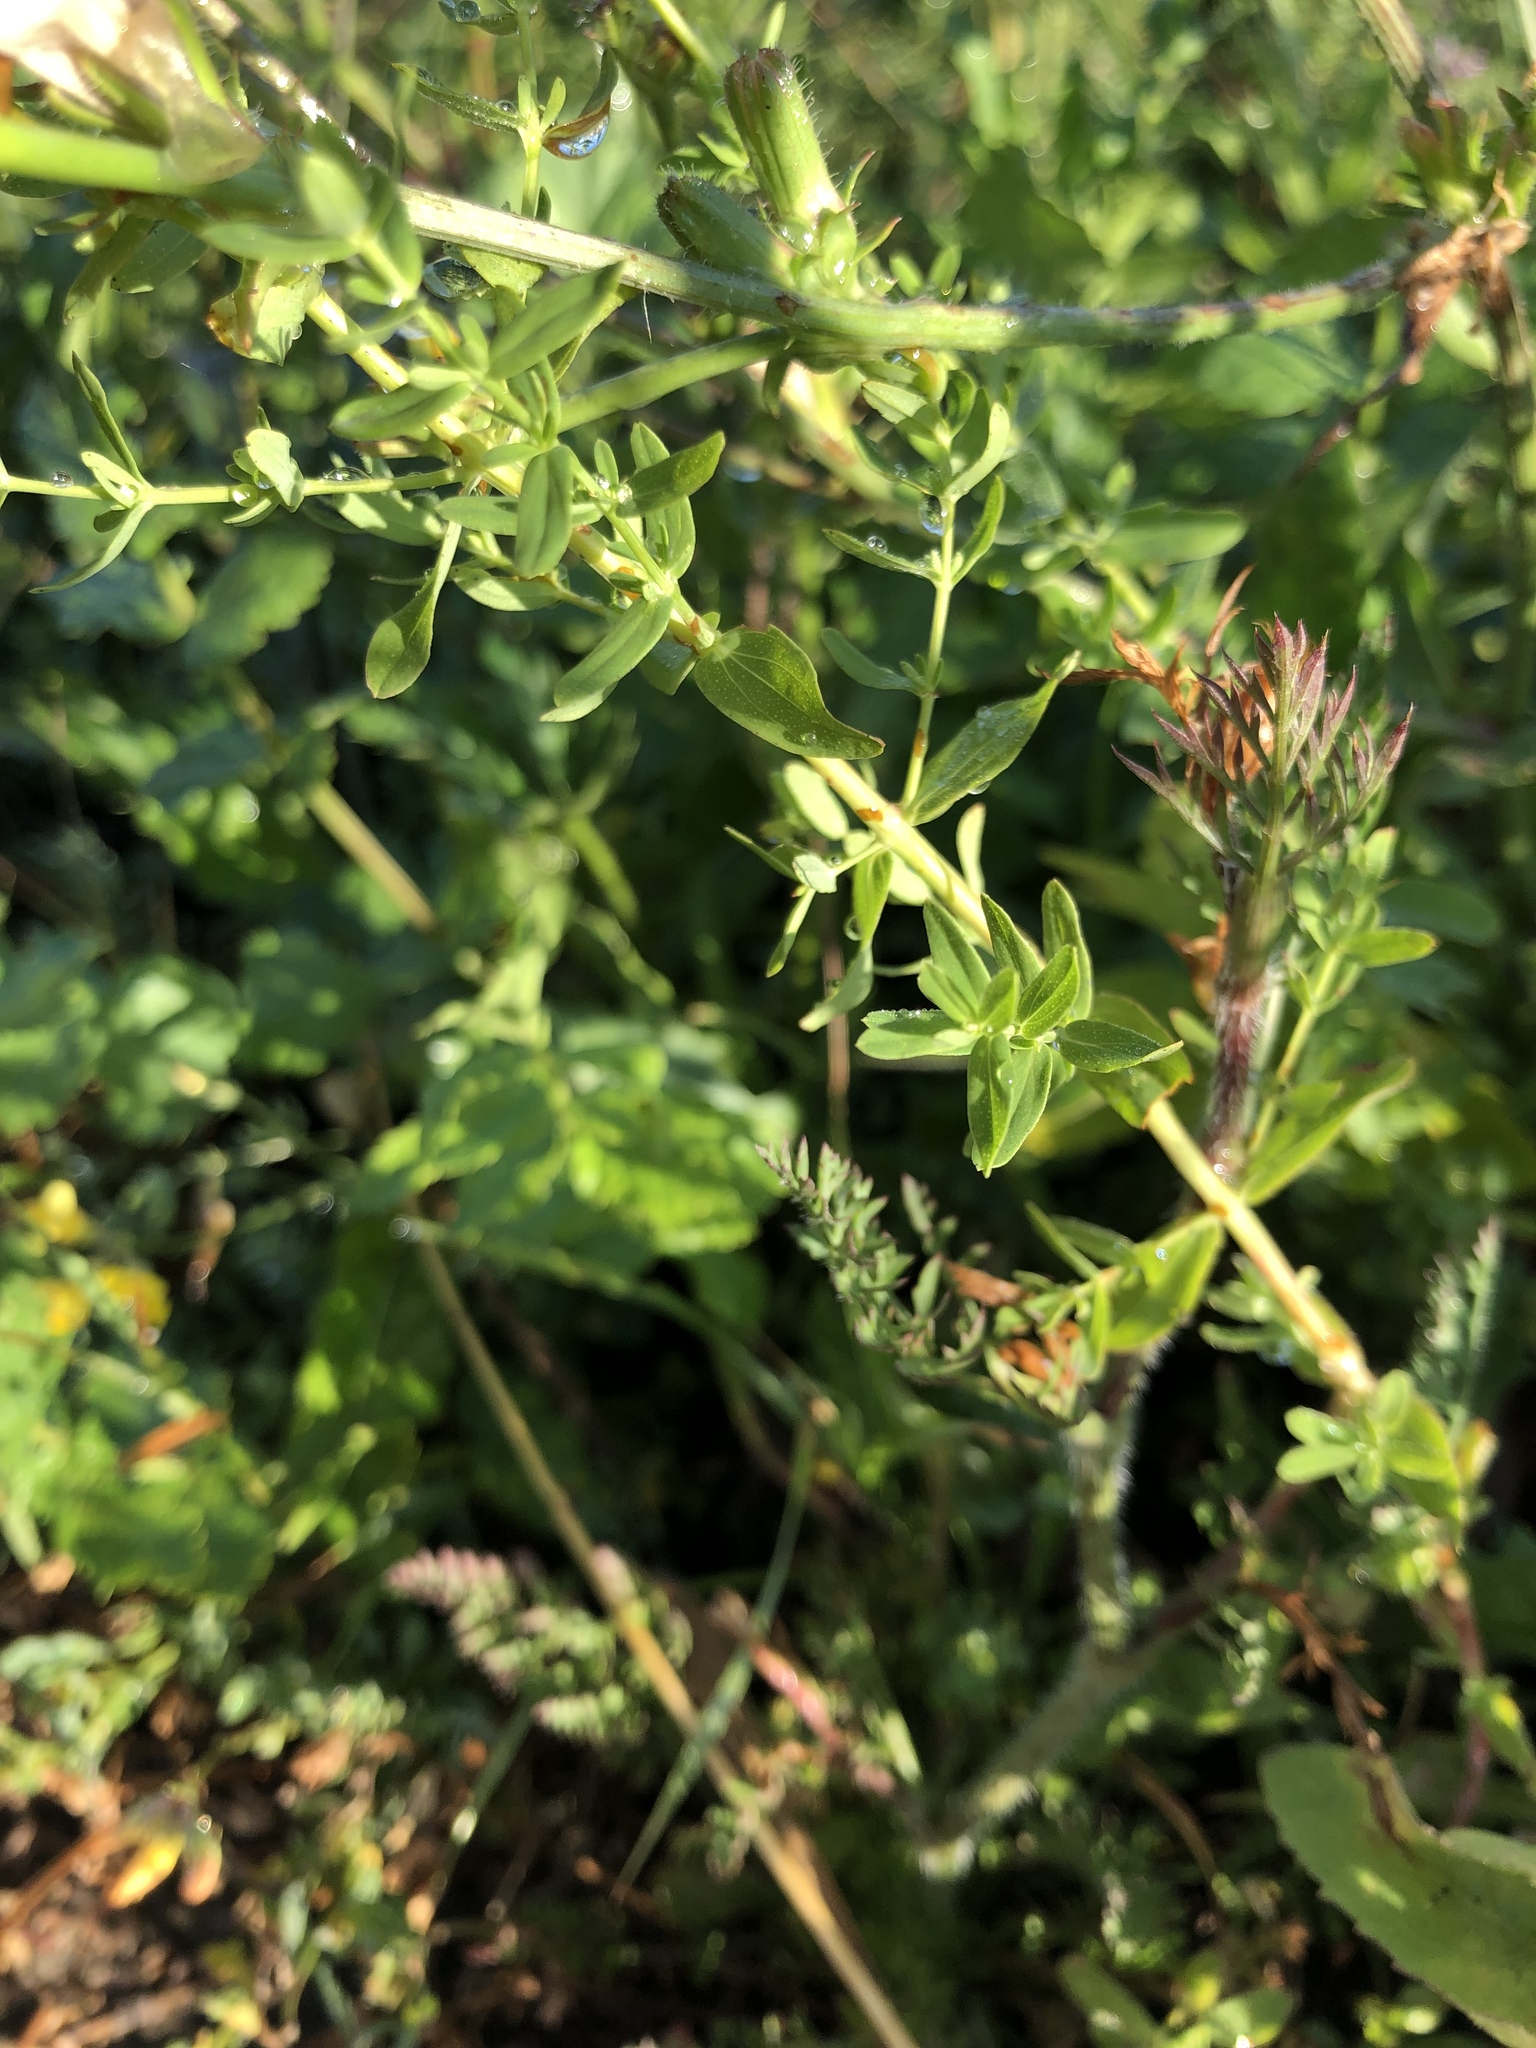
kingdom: Plantae
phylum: Tracheophyta
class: Magnoliopsida
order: Malpighiales
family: Hypericaceae
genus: Hypericum
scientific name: Hypericum perforatum
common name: Common st. johnswort
